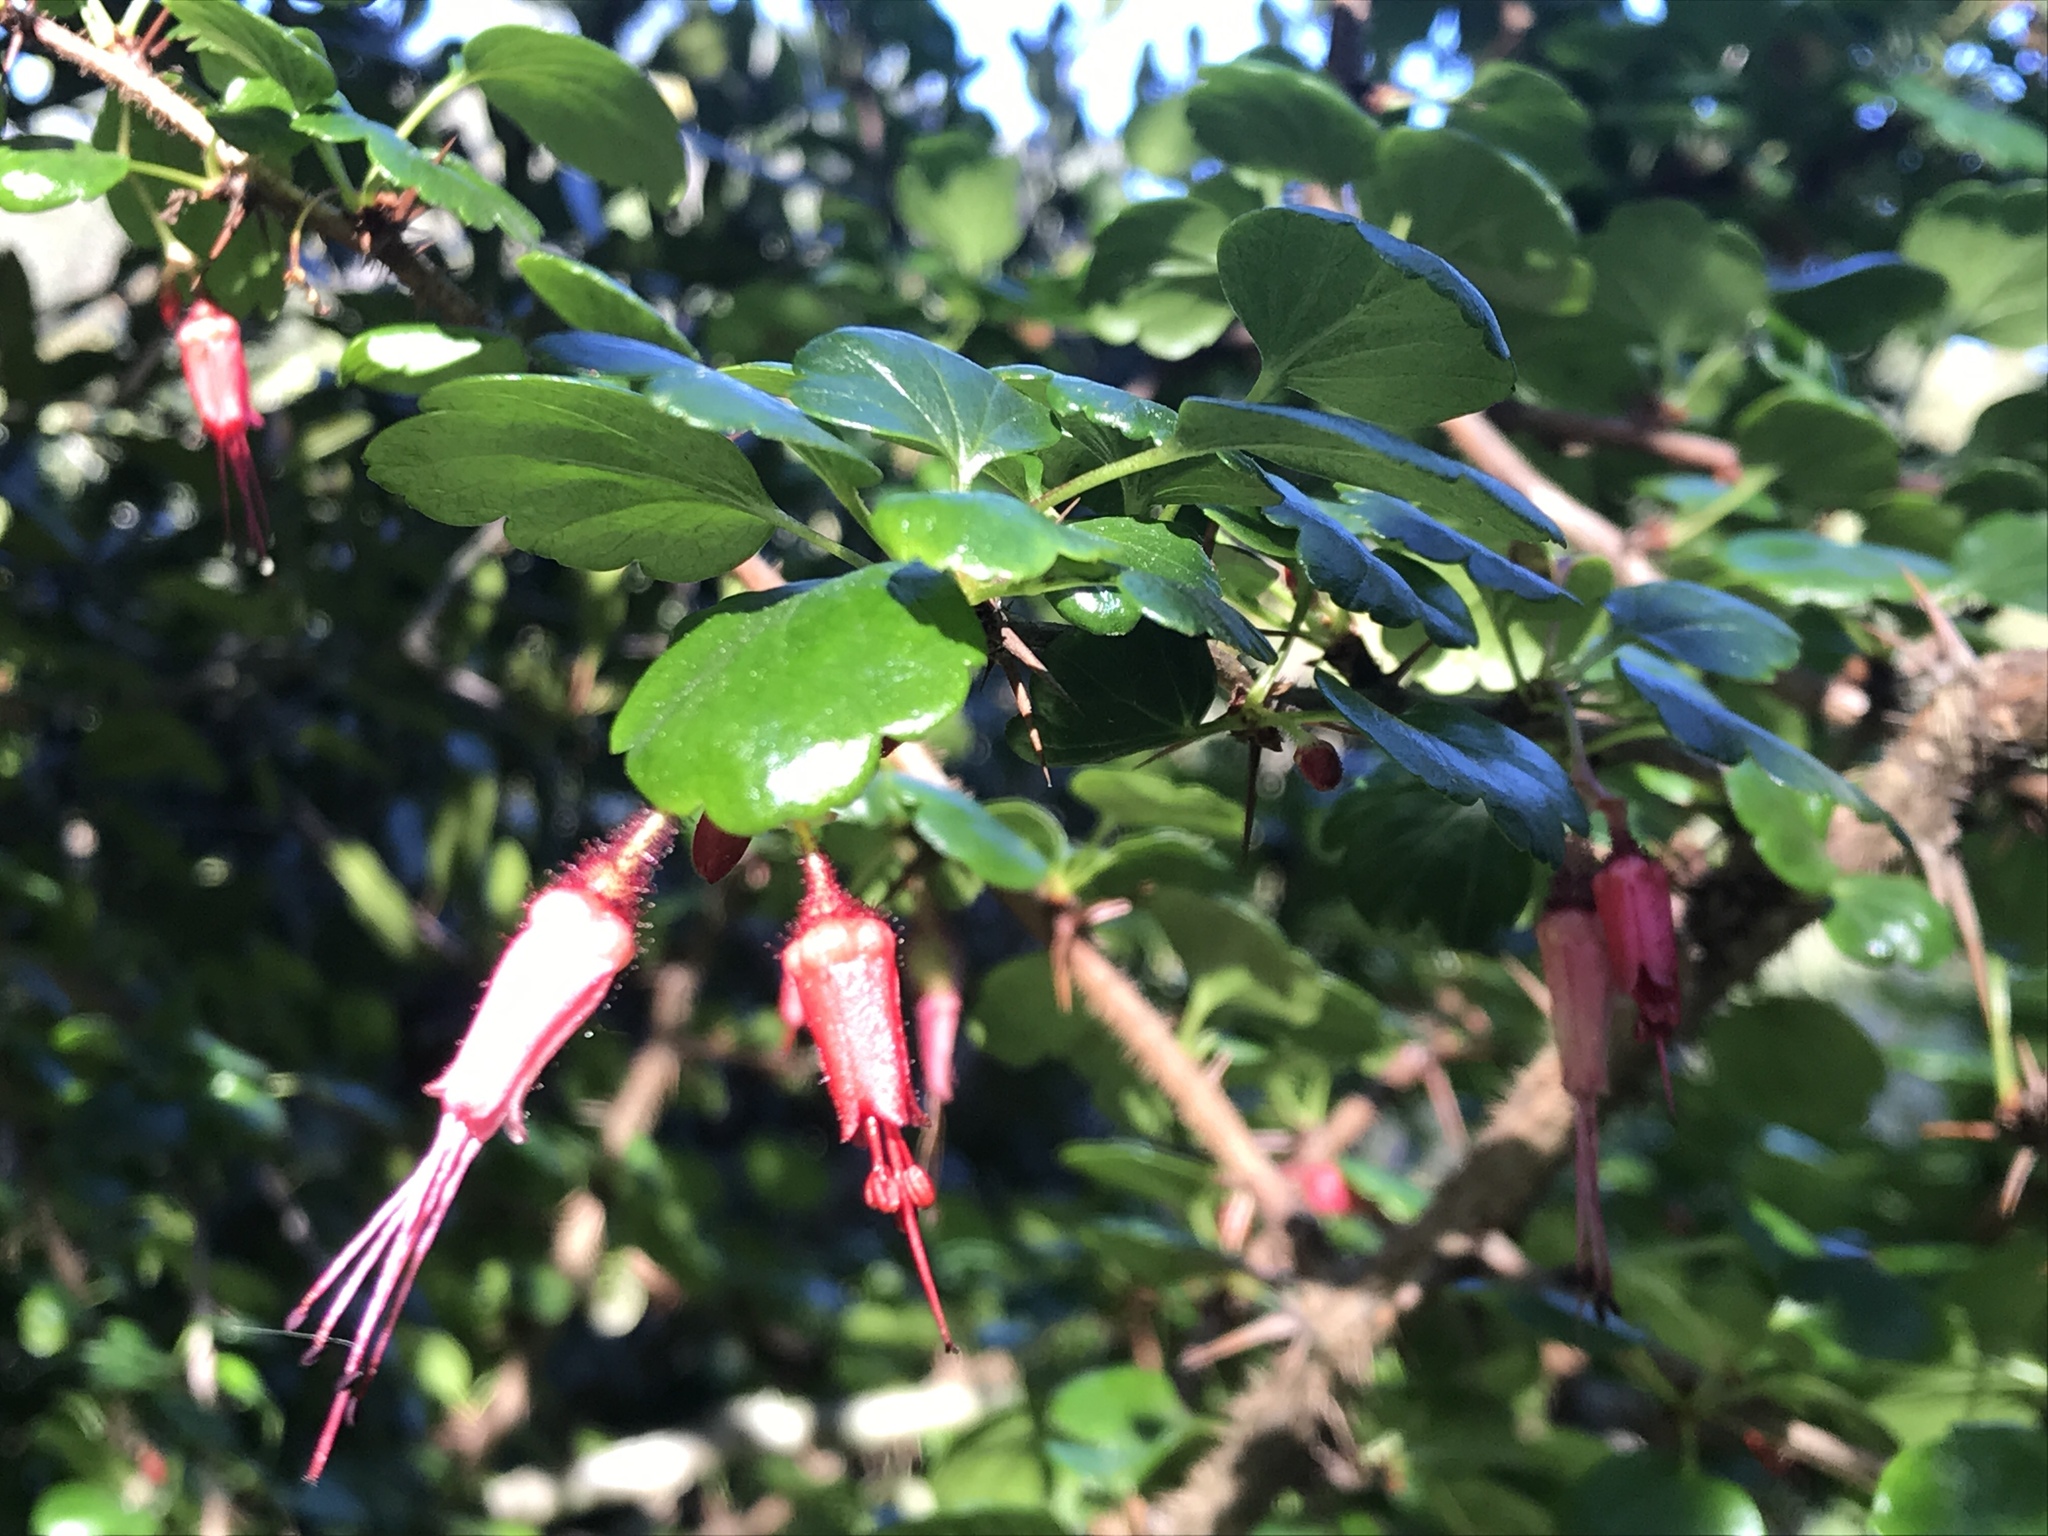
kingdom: Plantae
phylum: Tracheophyta
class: Magnoliopsida
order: Saxifragales
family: Grossulariaceae
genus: Ribes
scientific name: Ribes speciosum
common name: Fuchsia-flower gooseberry
